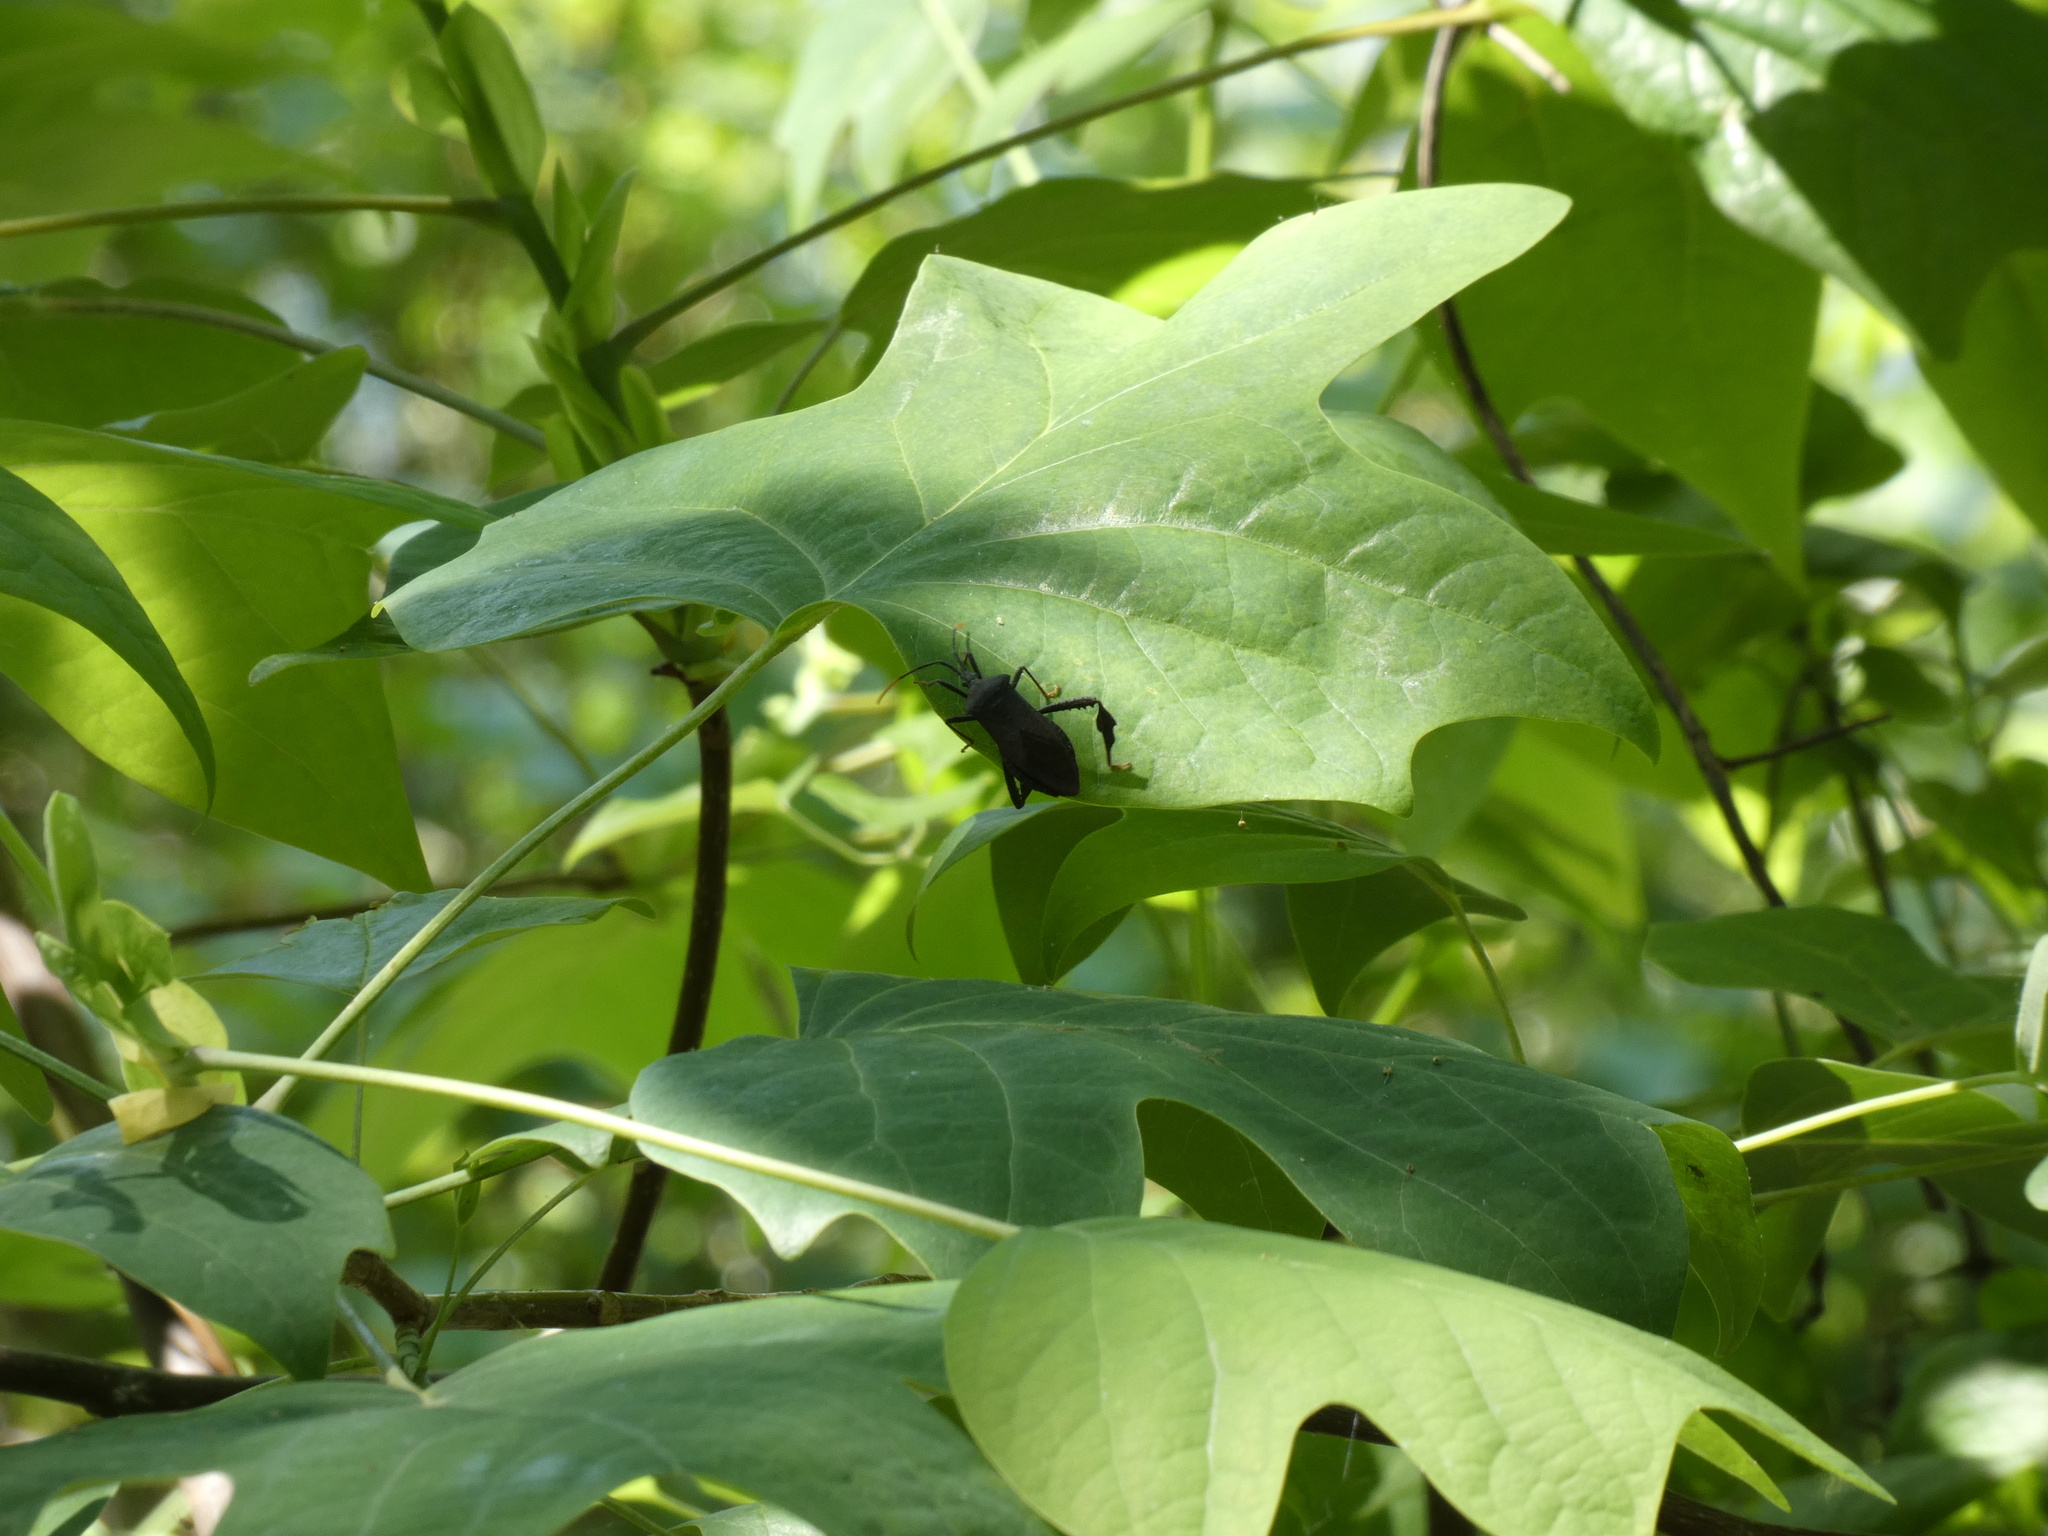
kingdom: Animalia
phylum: Arthropoda
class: Insecta
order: Hemiptera
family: Coreidae
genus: Acanthocephala
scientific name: Acanthocephala terminalis
